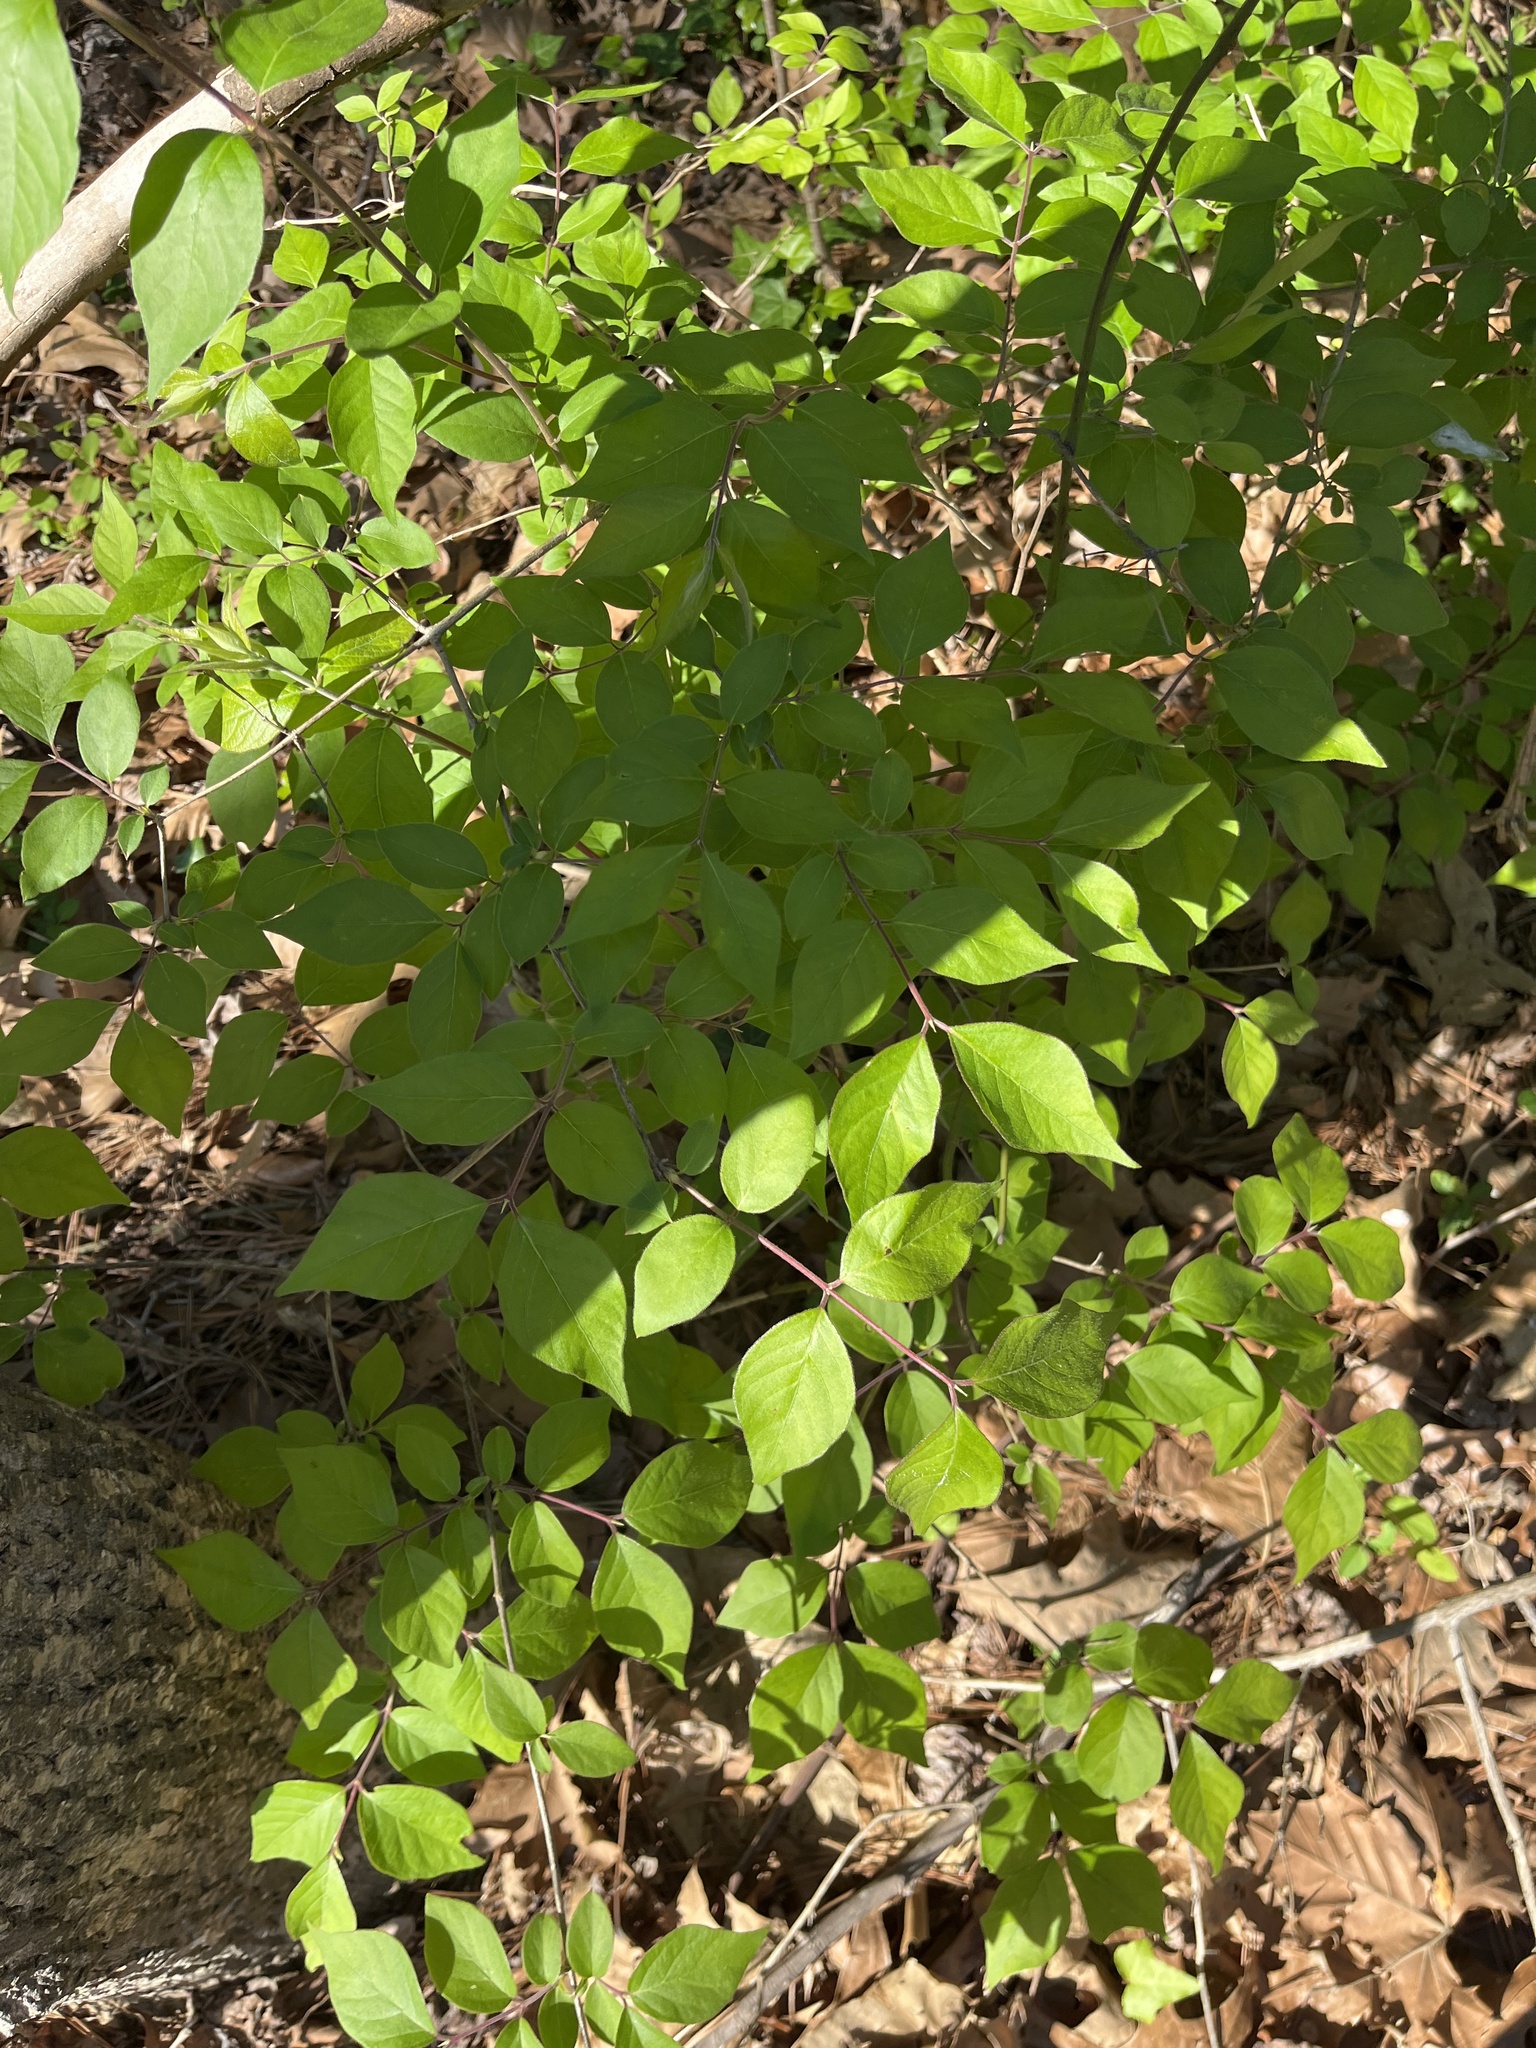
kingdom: Plantae
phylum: Tracheophyta
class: Magnoliopsida
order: Dipsacales
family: Caprifoliaceae
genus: Lonicera
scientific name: Lonicera maackii
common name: Amur honeysuckle
